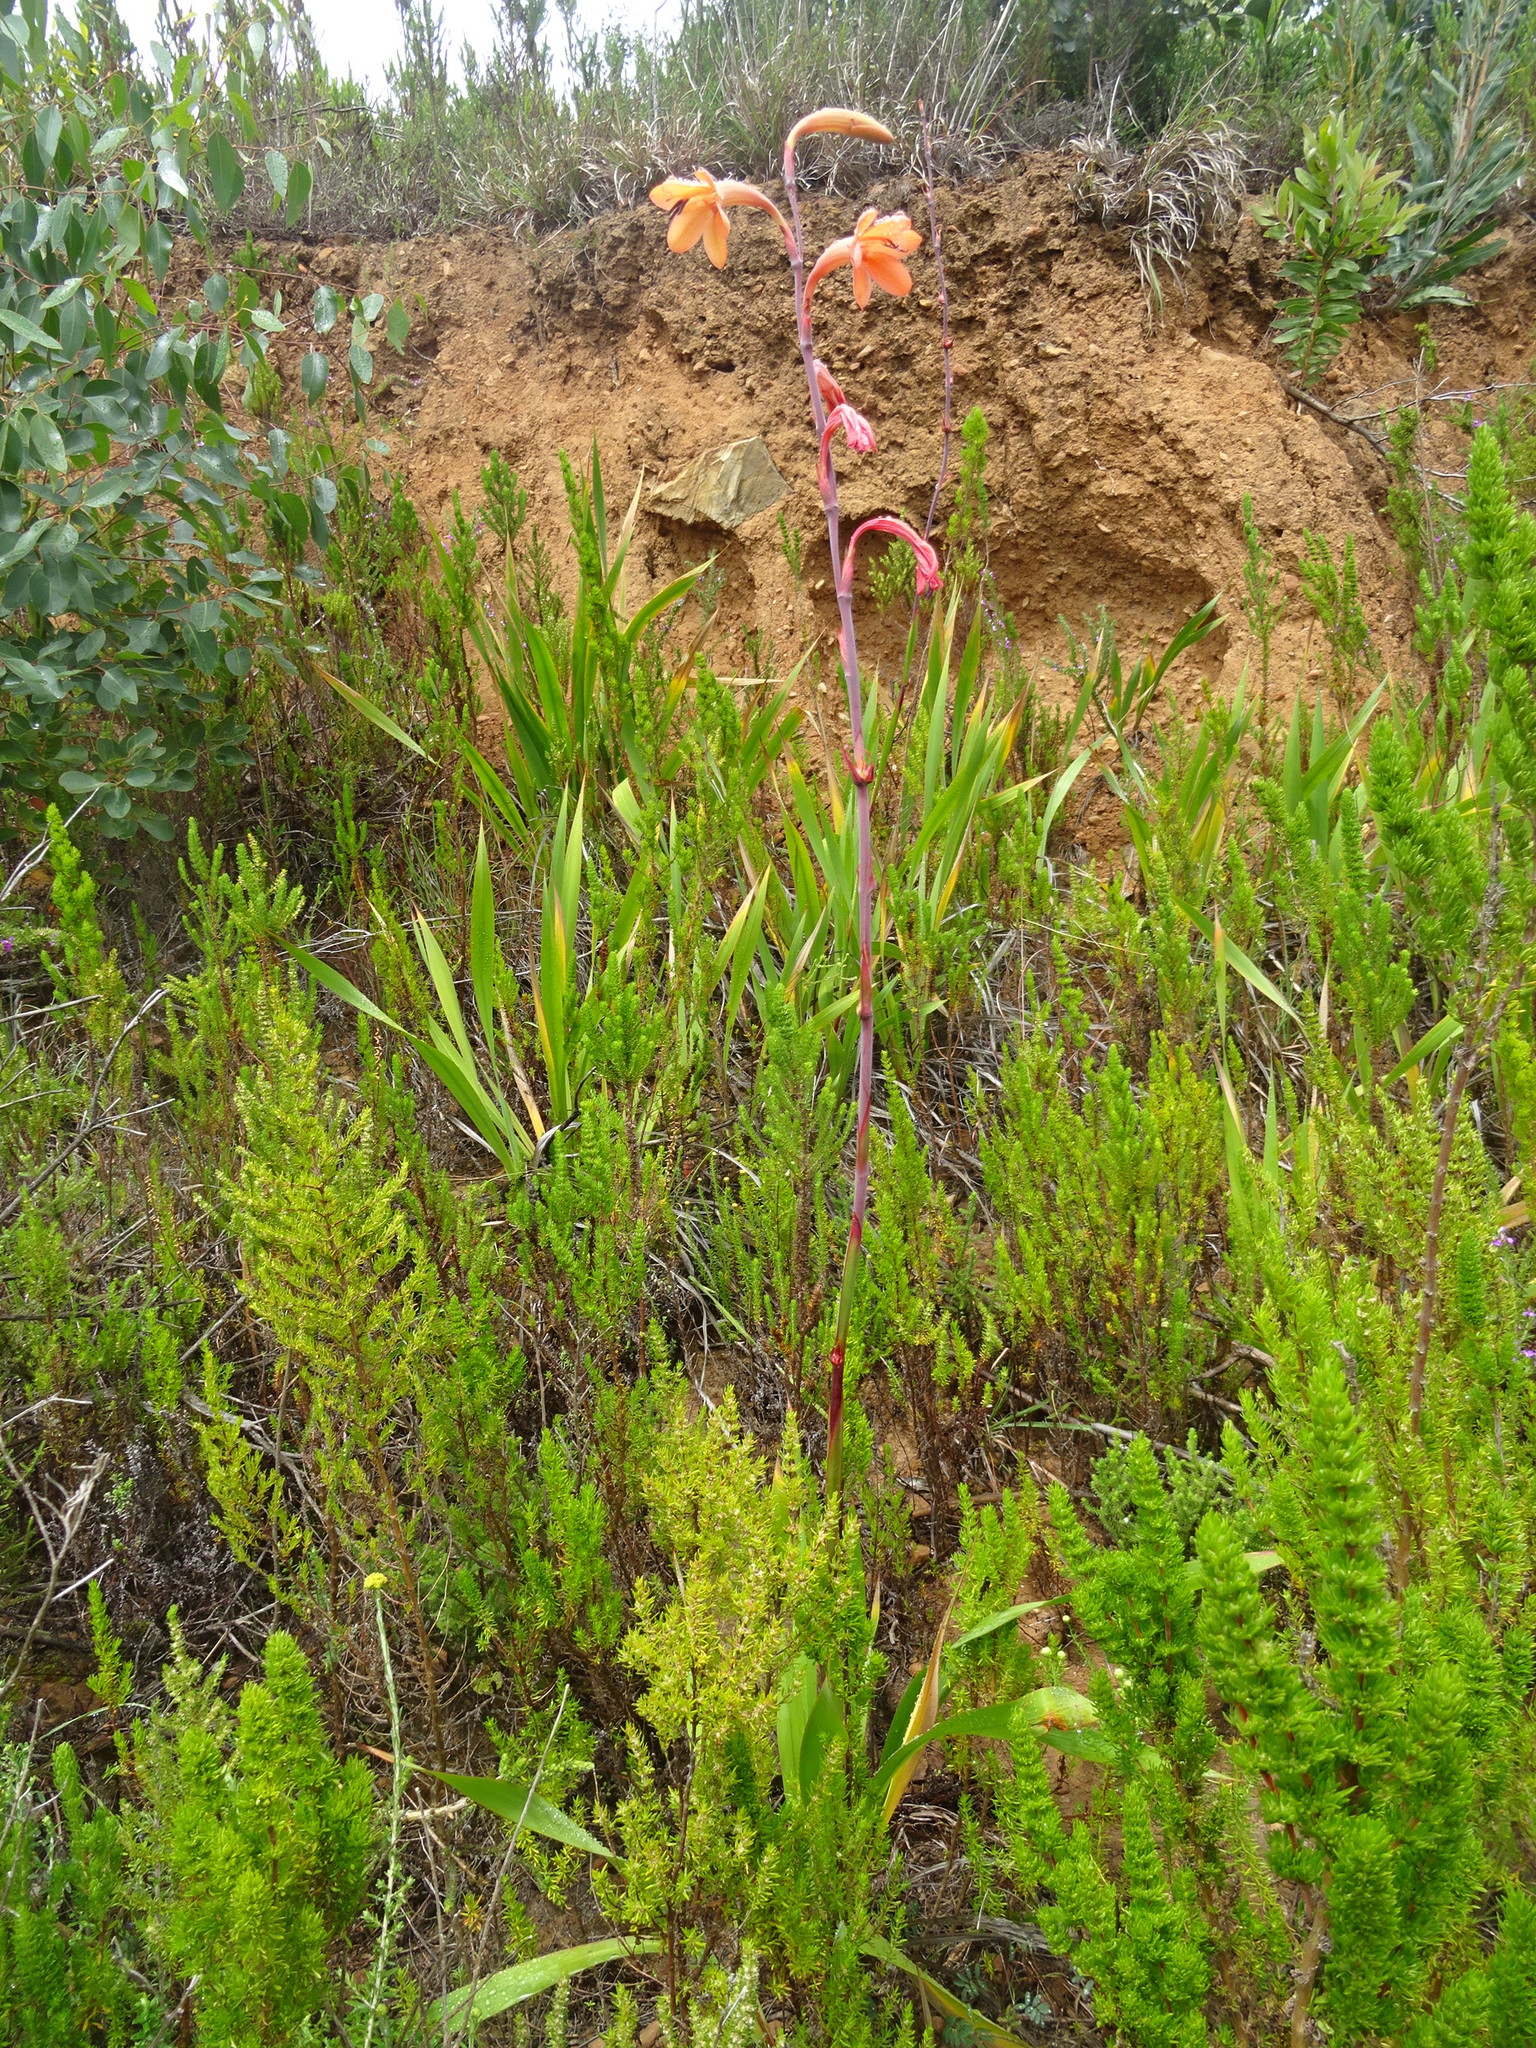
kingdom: Plantae
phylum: Tracheophyta
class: Liliopsida
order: Asparagales
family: Iridaceae
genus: Watsonia
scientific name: Watsonia meriana
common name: Bulbil bugle-lily
